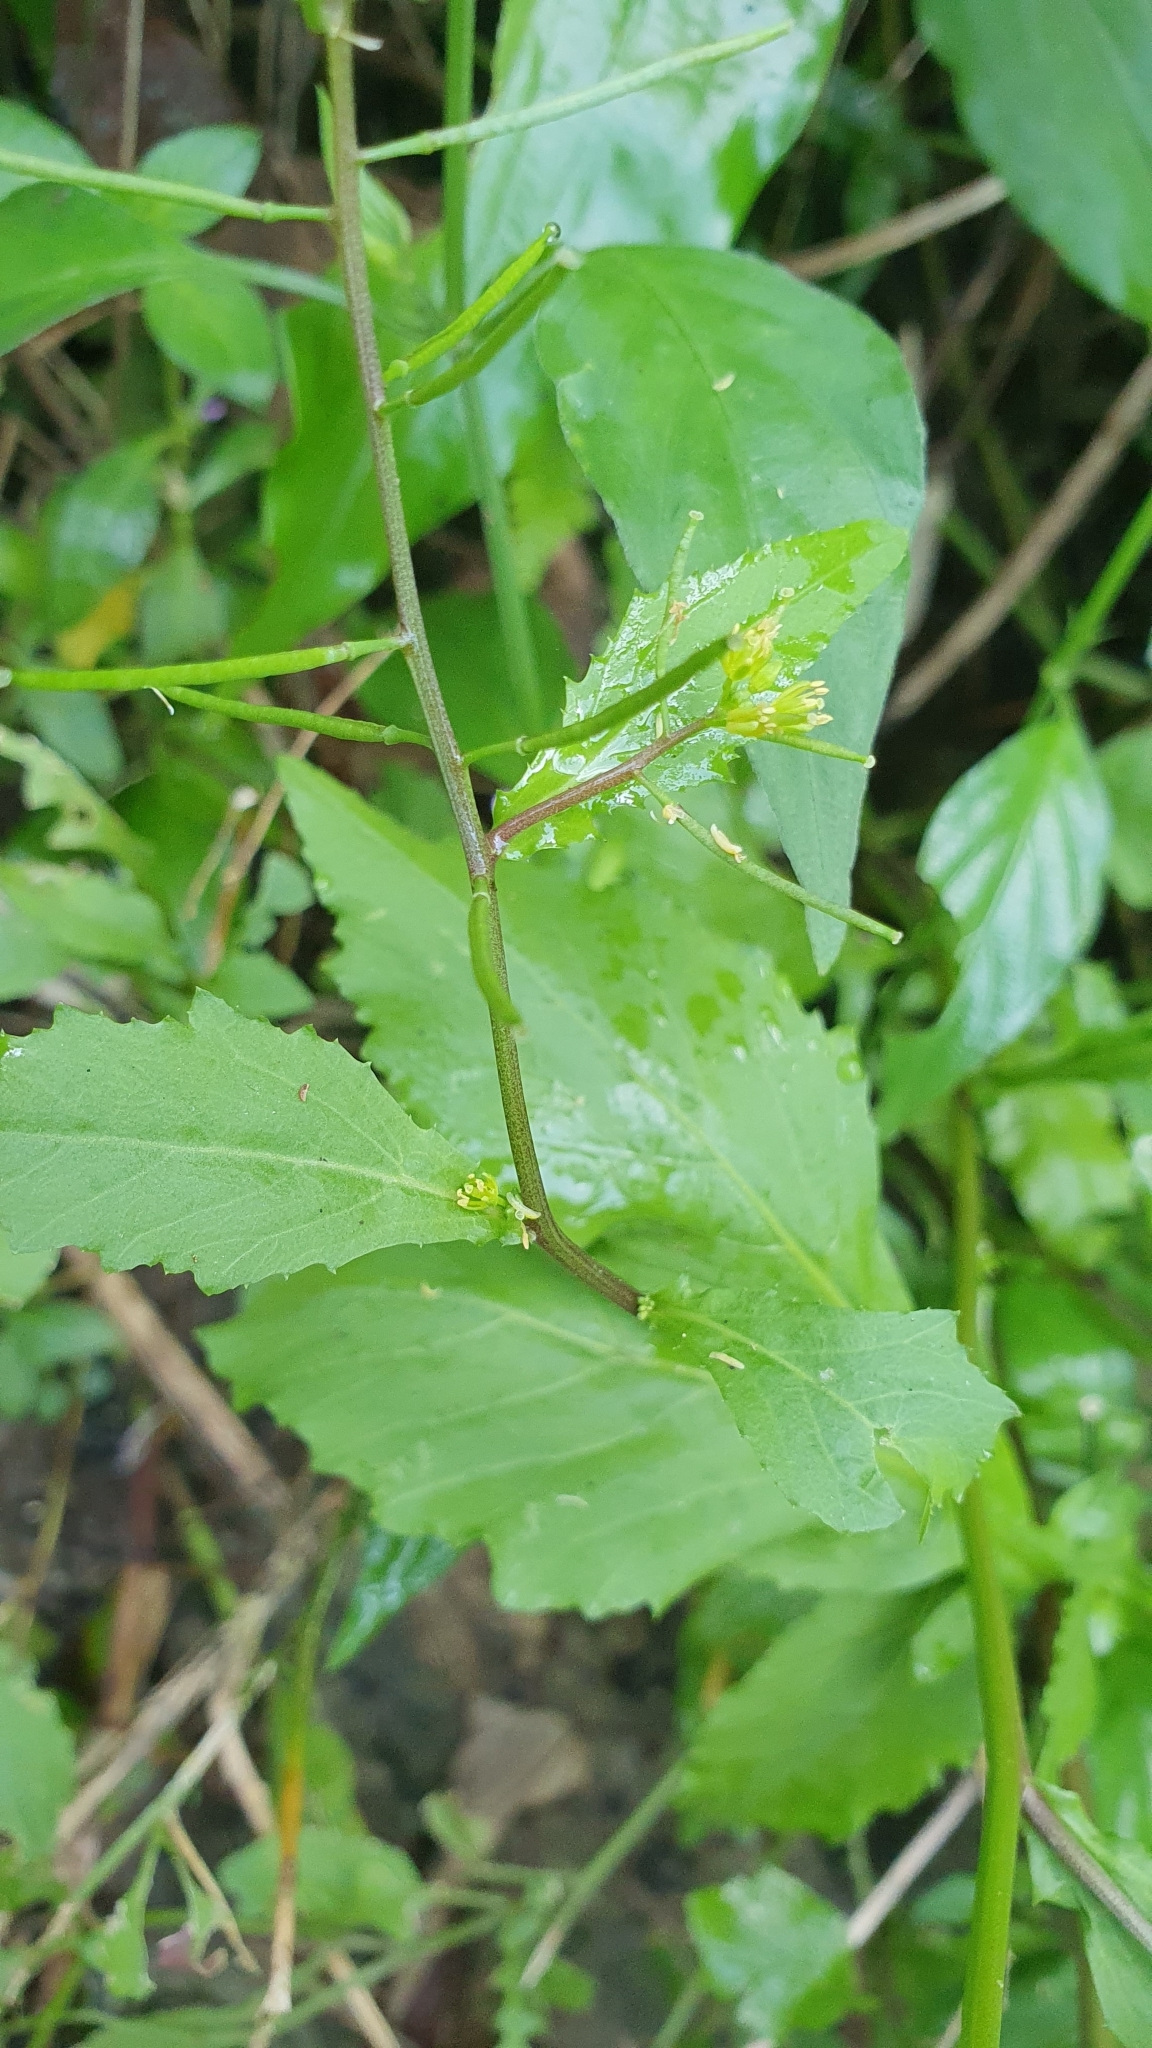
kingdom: Plantae
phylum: Tracheophyta
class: Magnoliopsida
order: Brassicales
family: Brassicaceae
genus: Rorippa
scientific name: Rorippa indica
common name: Variableleaf yellowcress
